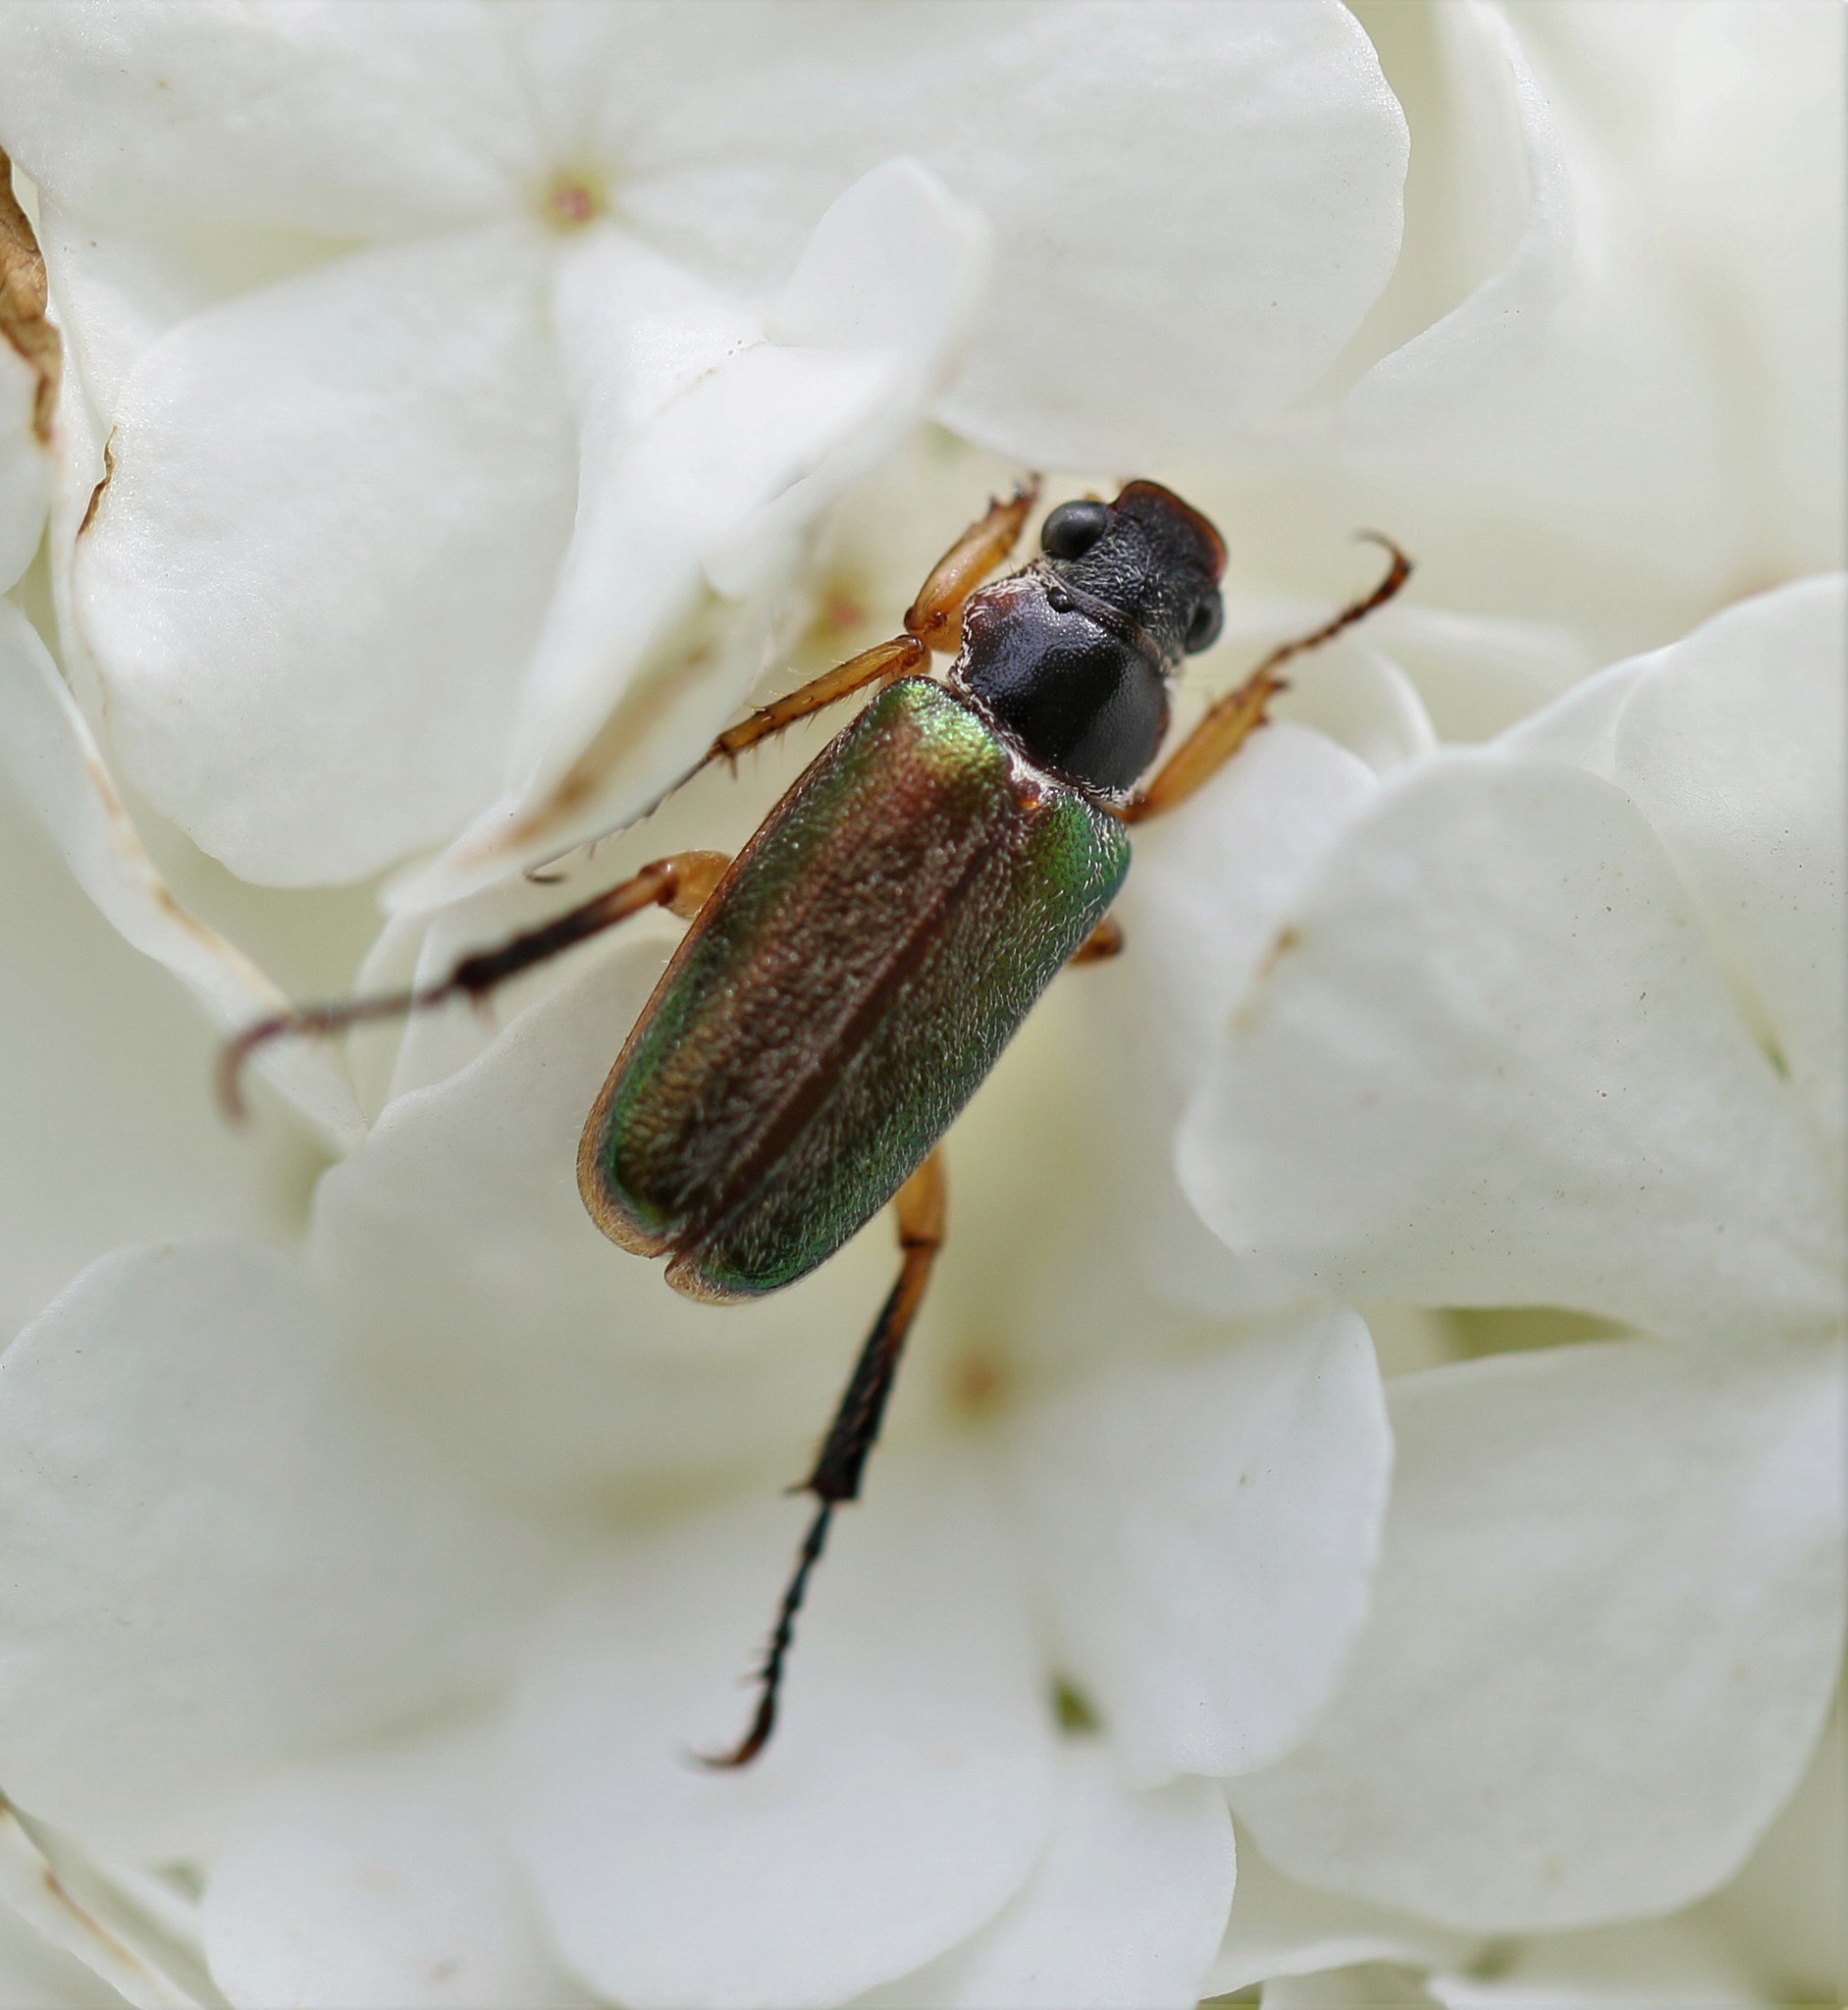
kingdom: Animalia
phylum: Arthropoda
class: Insecta
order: Coleoptera
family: Scarabaeidae
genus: Dichelonyx
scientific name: Dichelonyx elongatula
